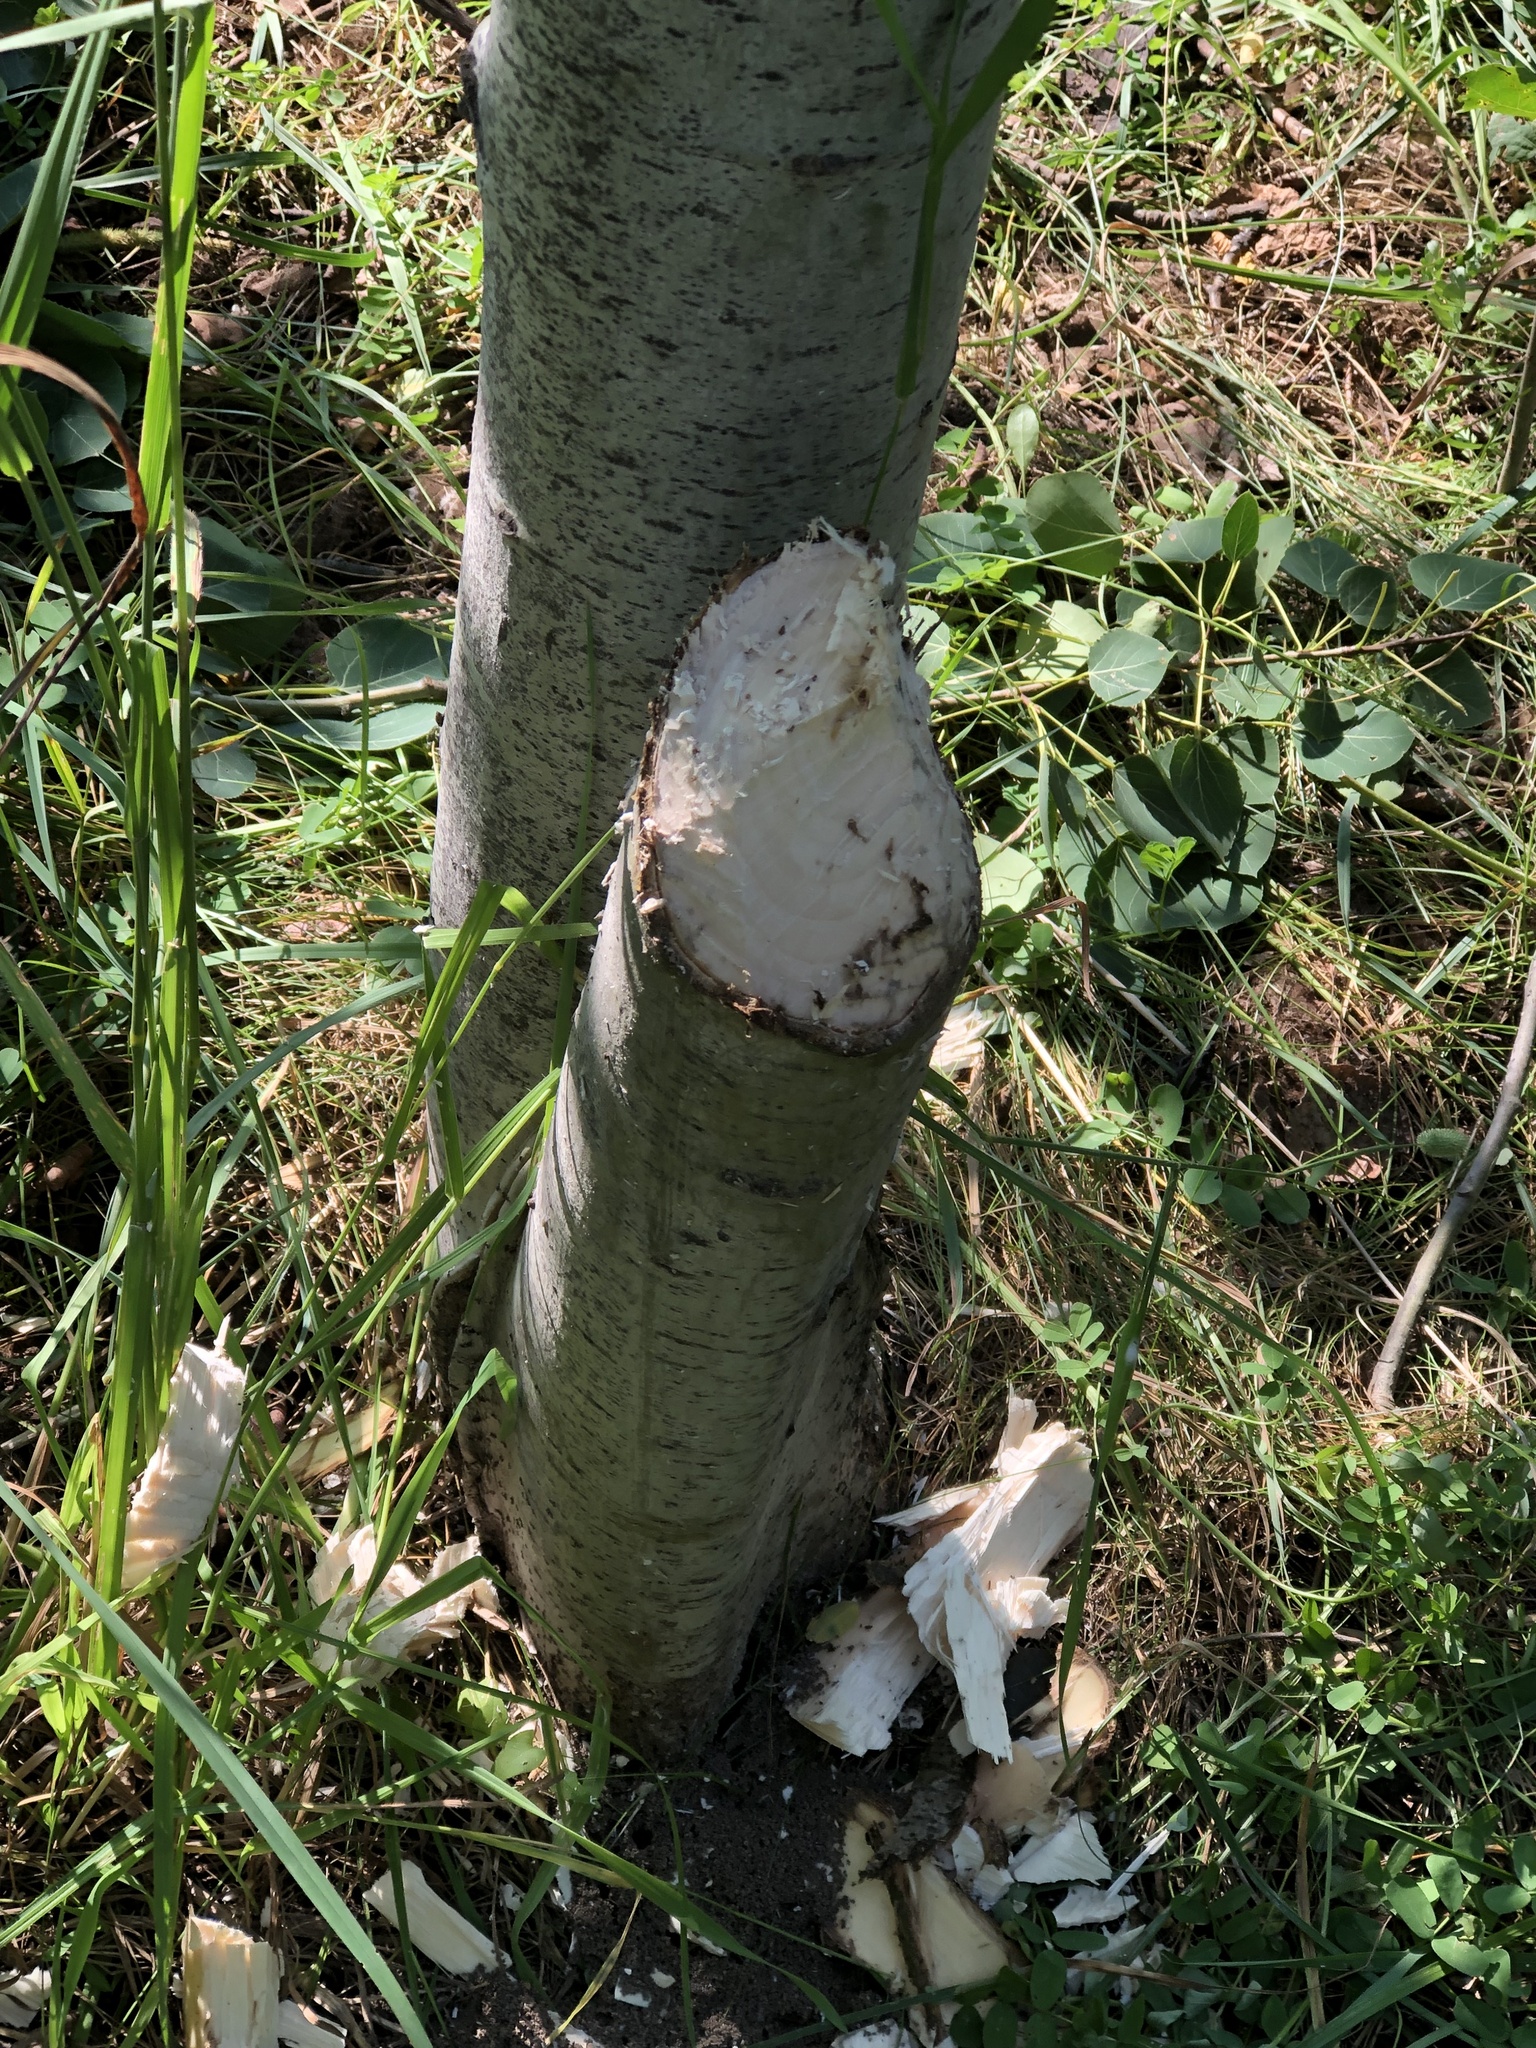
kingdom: Animalia
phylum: Chordata
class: Mammalia
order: Rodentia
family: Castoridae
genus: Castor
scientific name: Castor canadensis
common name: American beaver
